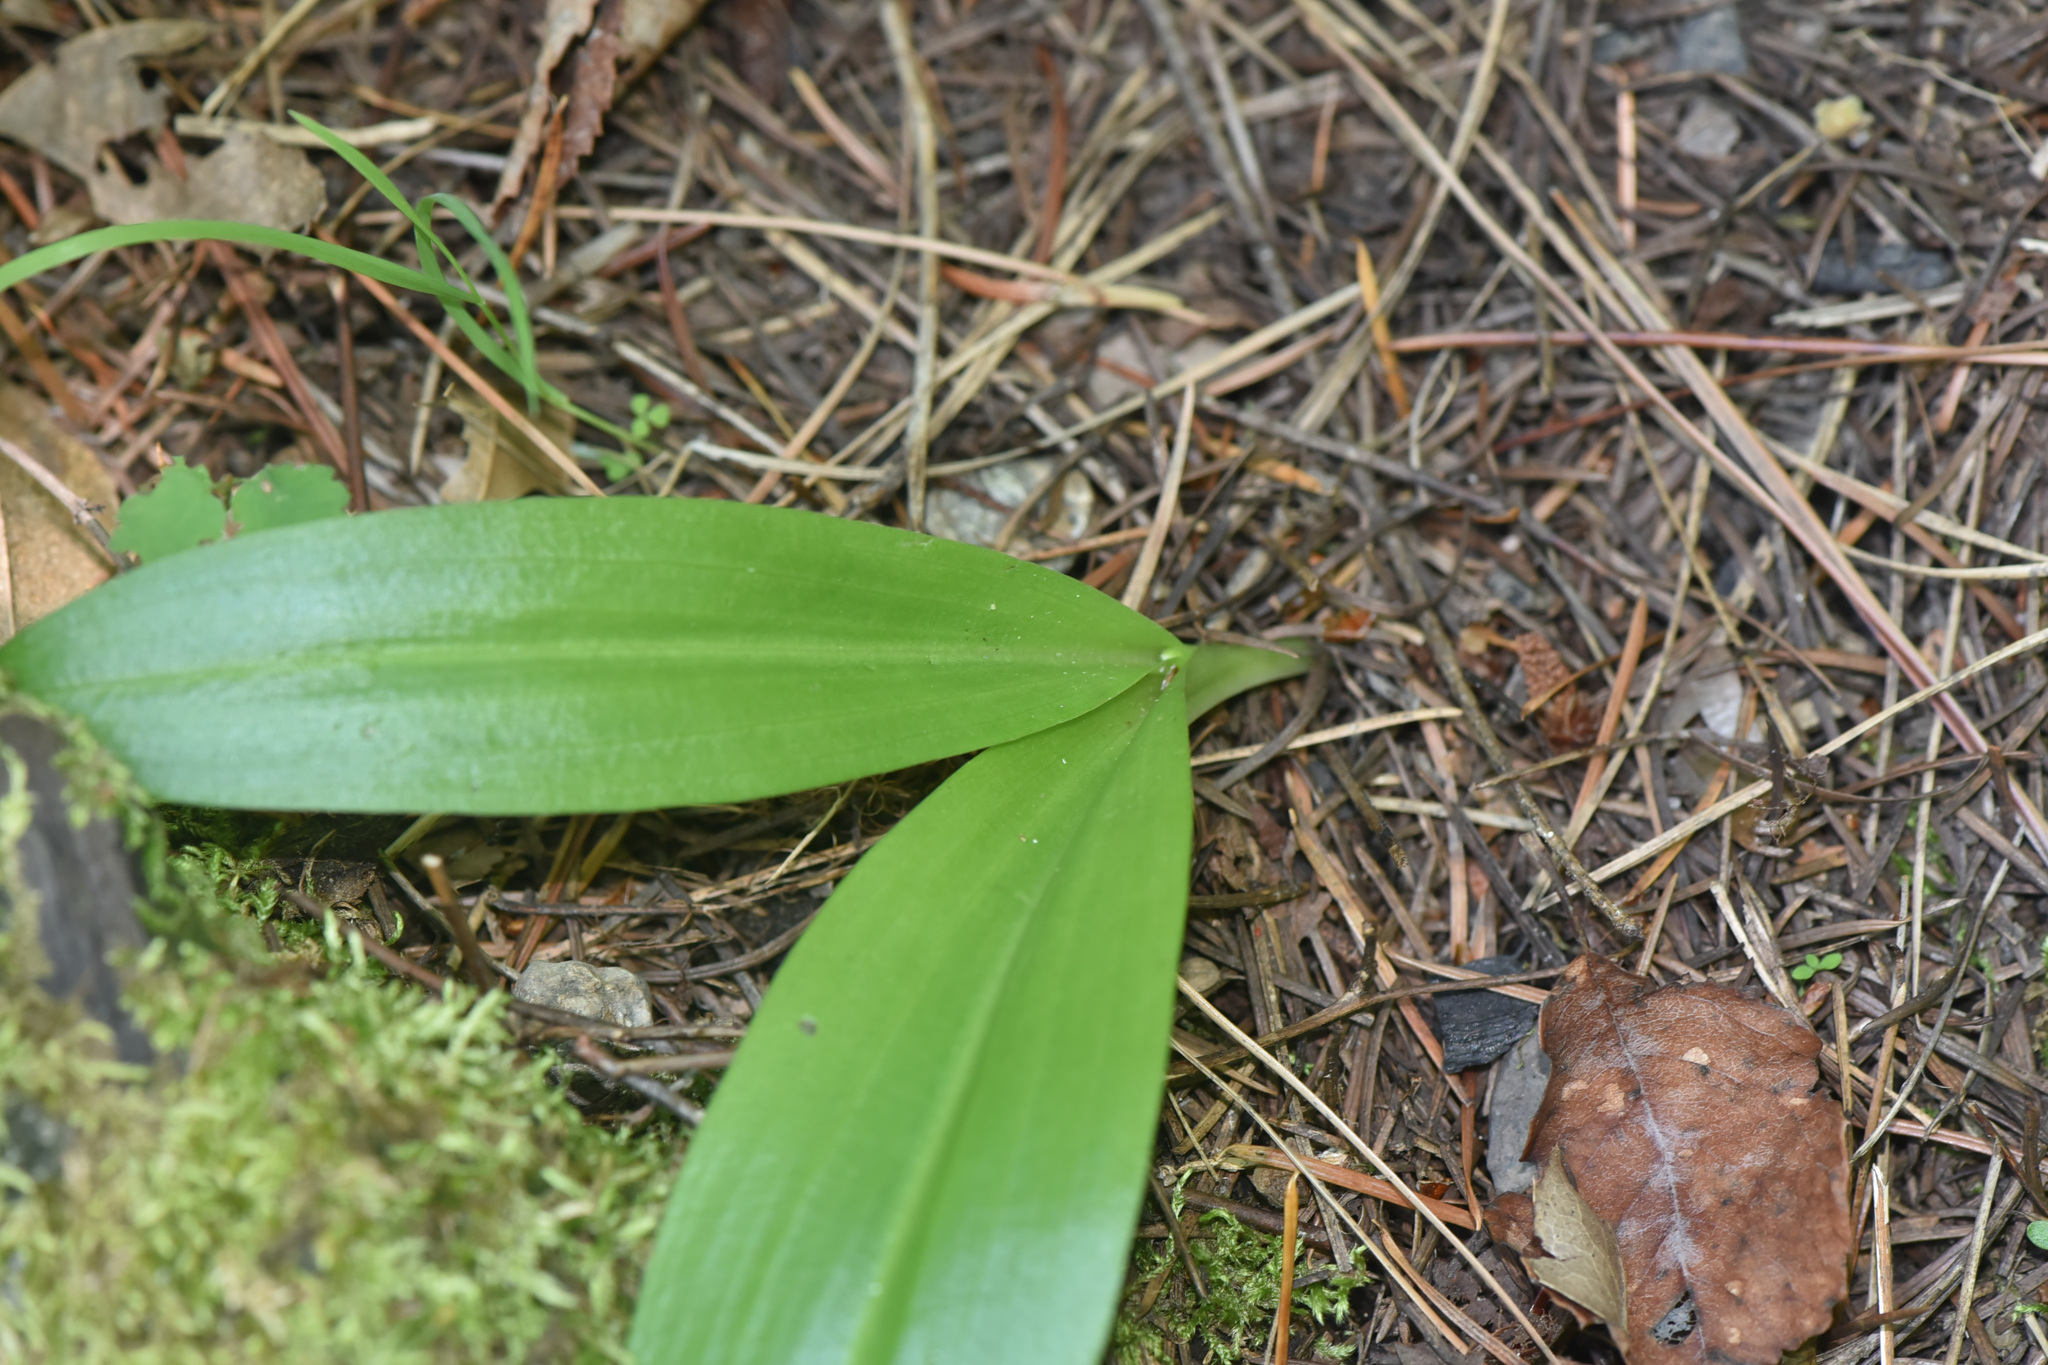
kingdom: Plantae
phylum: Tracheophyta
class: Liliopsida
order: Liliales
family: Liliaceae
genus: Clintonia
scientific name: Clintonia uniflora
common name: Queen's cup
